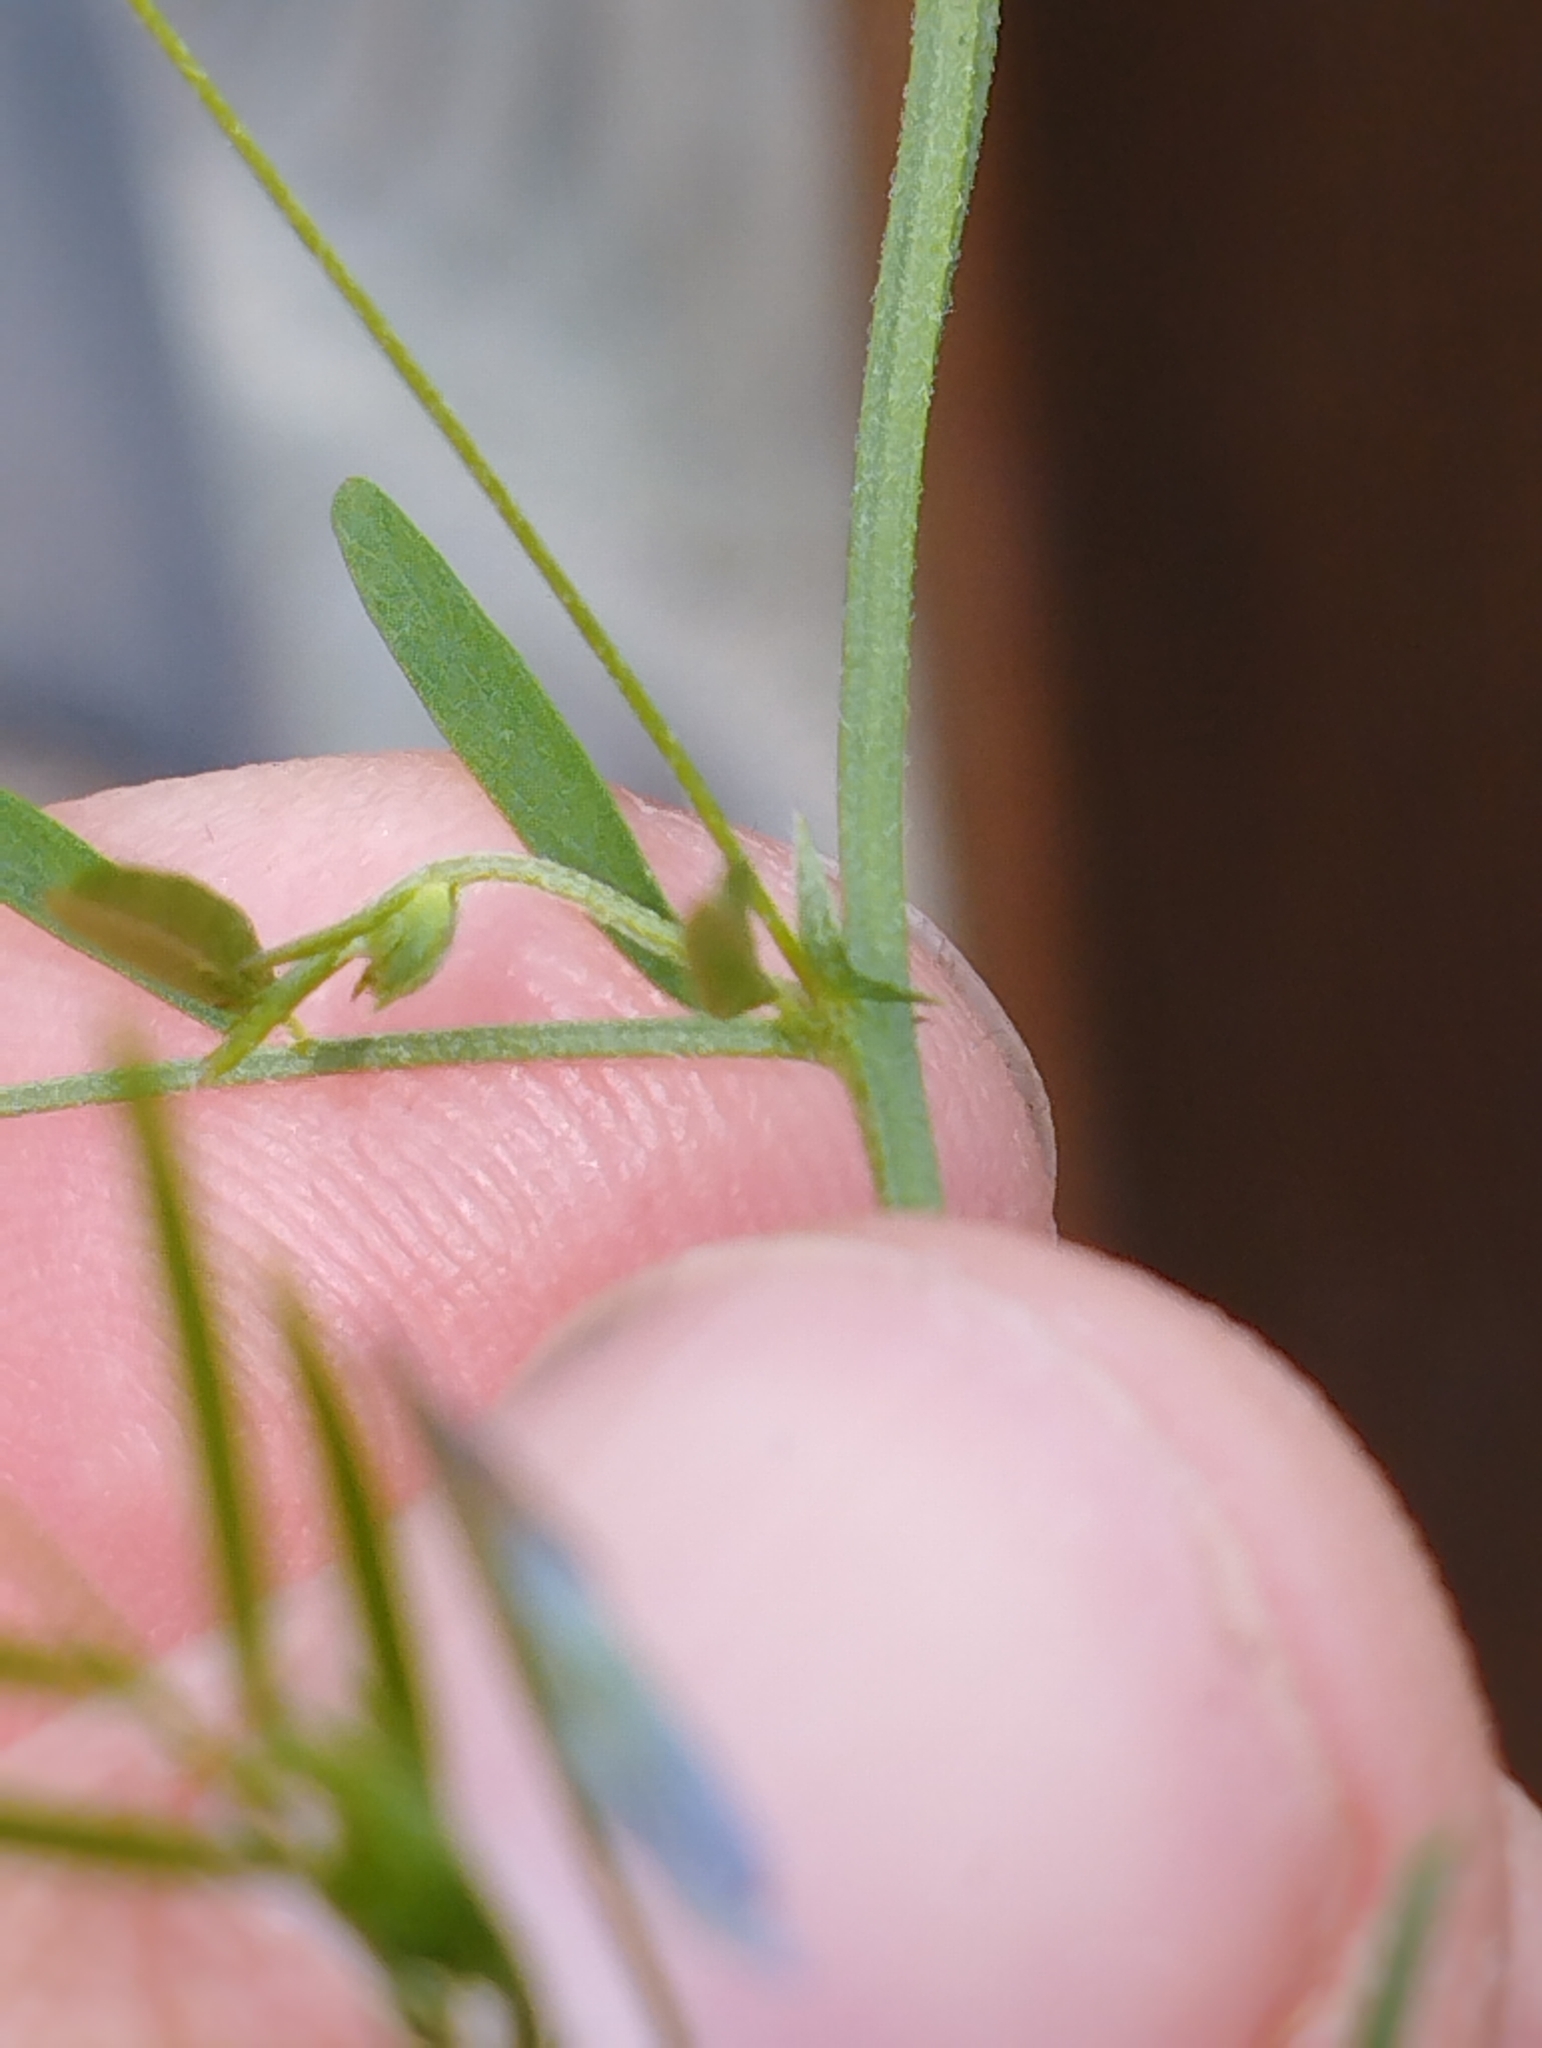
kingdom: Plantae
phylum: Tracheophyta
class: Magnoliopsida
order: Fabales
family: Fabaceae
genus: Vicia
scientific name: Vicia tetrasperma
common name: Smooth tare
